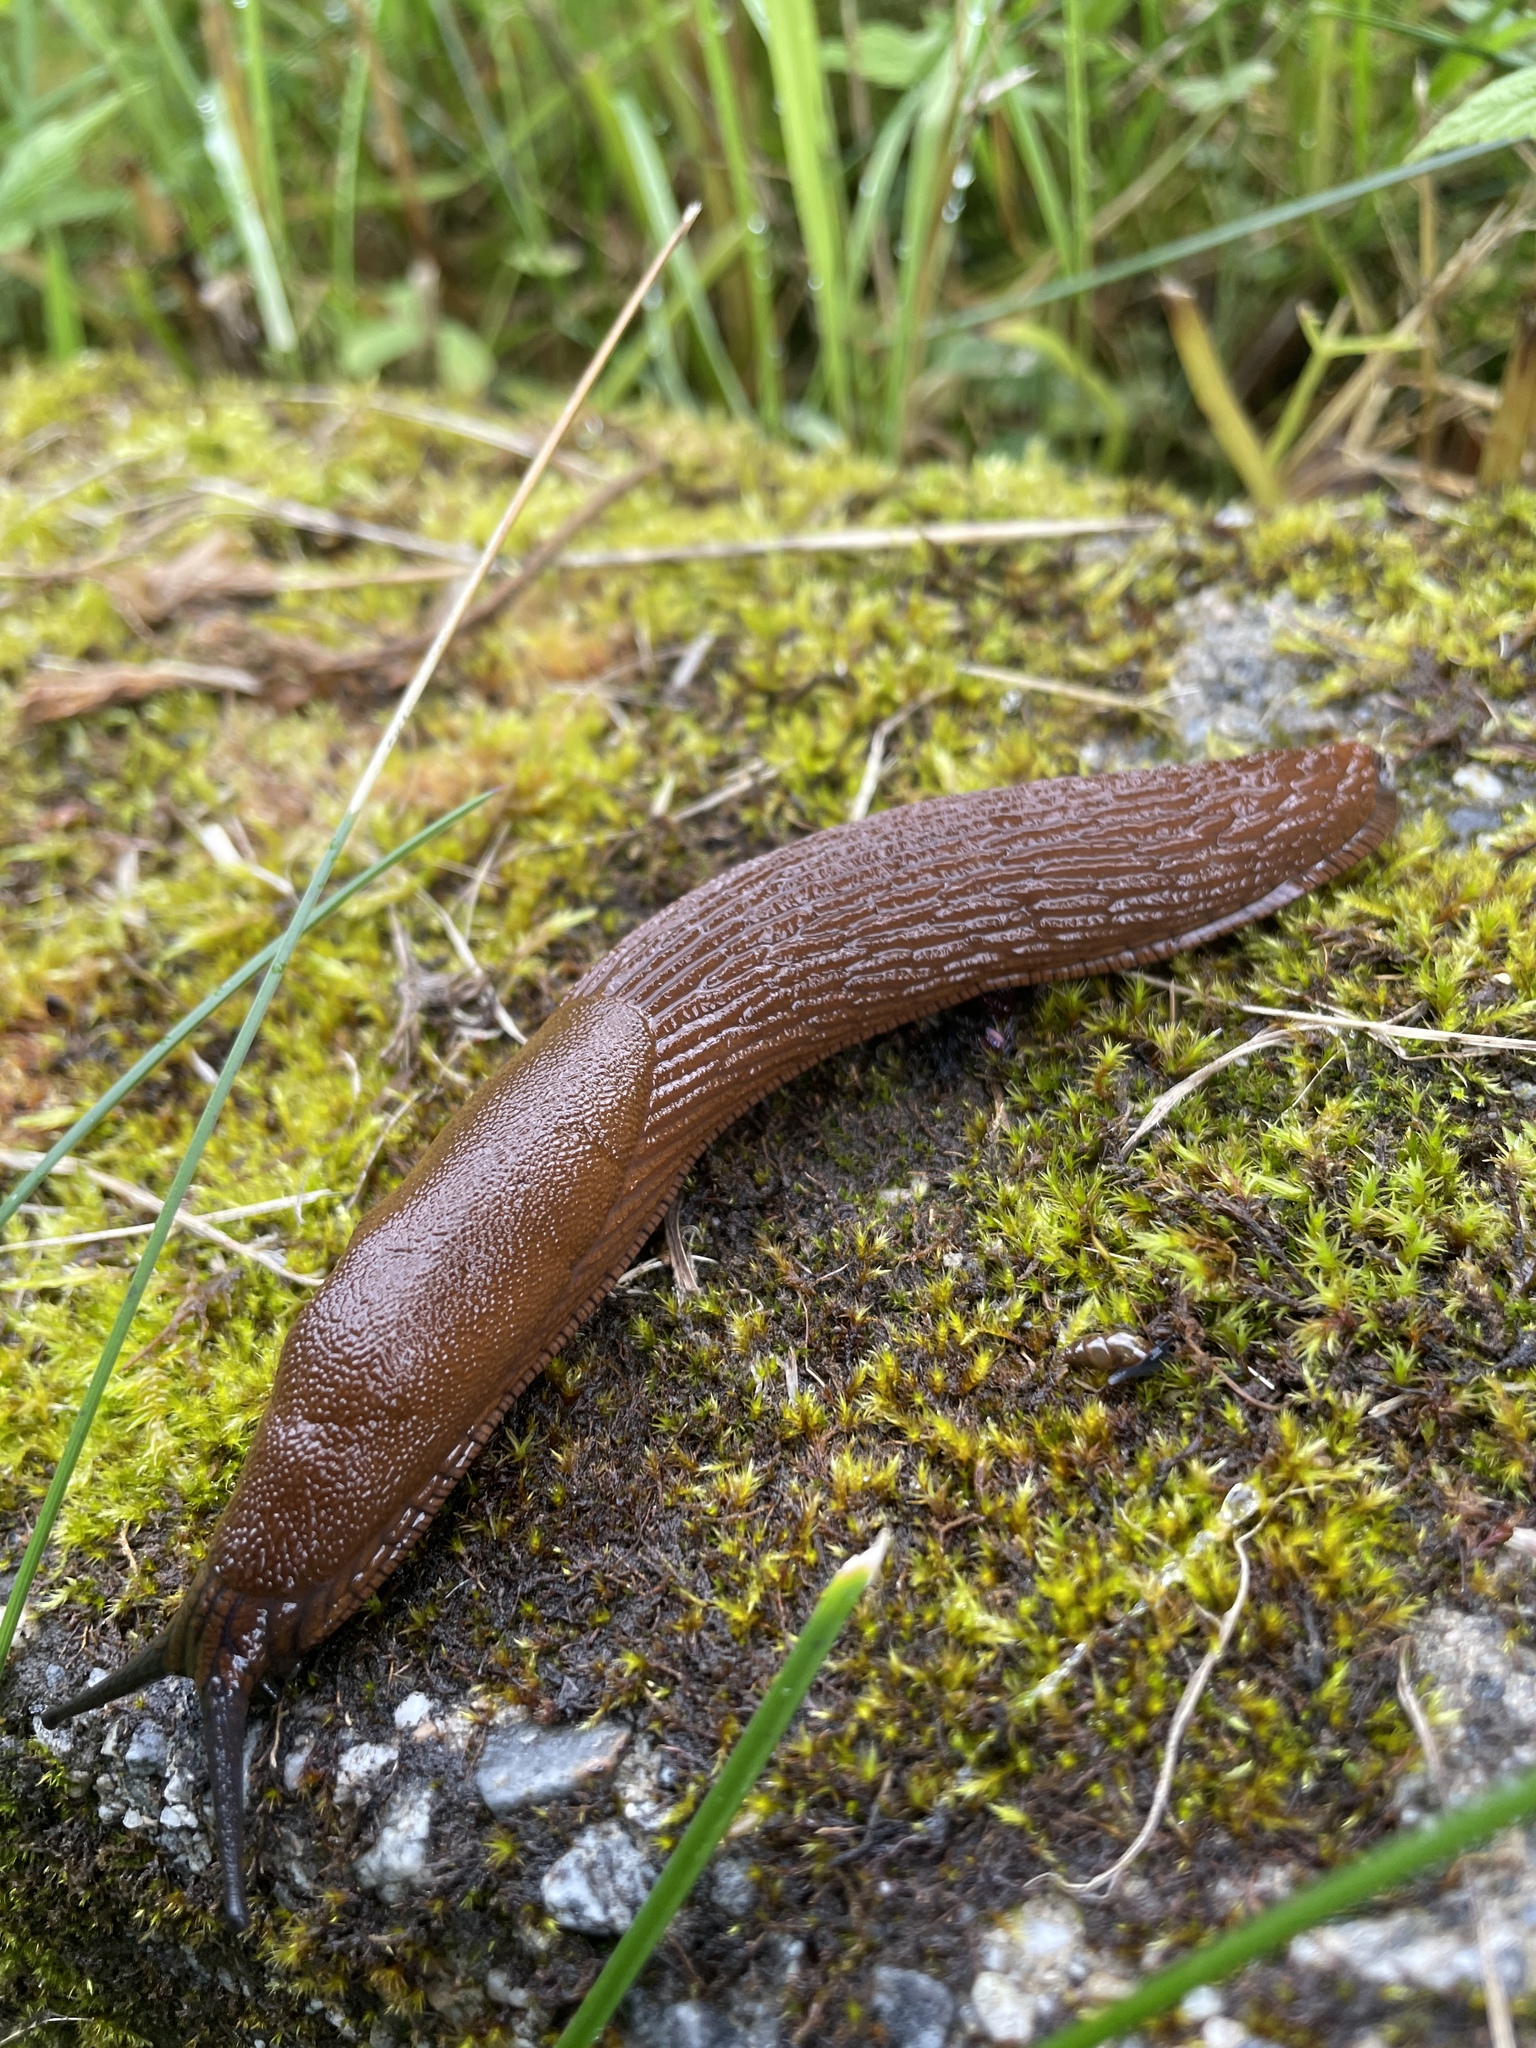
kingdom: Animalia
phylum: Mollusca
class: Gastropoda
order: Stylommatophora
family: Arionidae
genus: Arion
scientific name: Arion vulgaris
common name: Lusitanian slug
